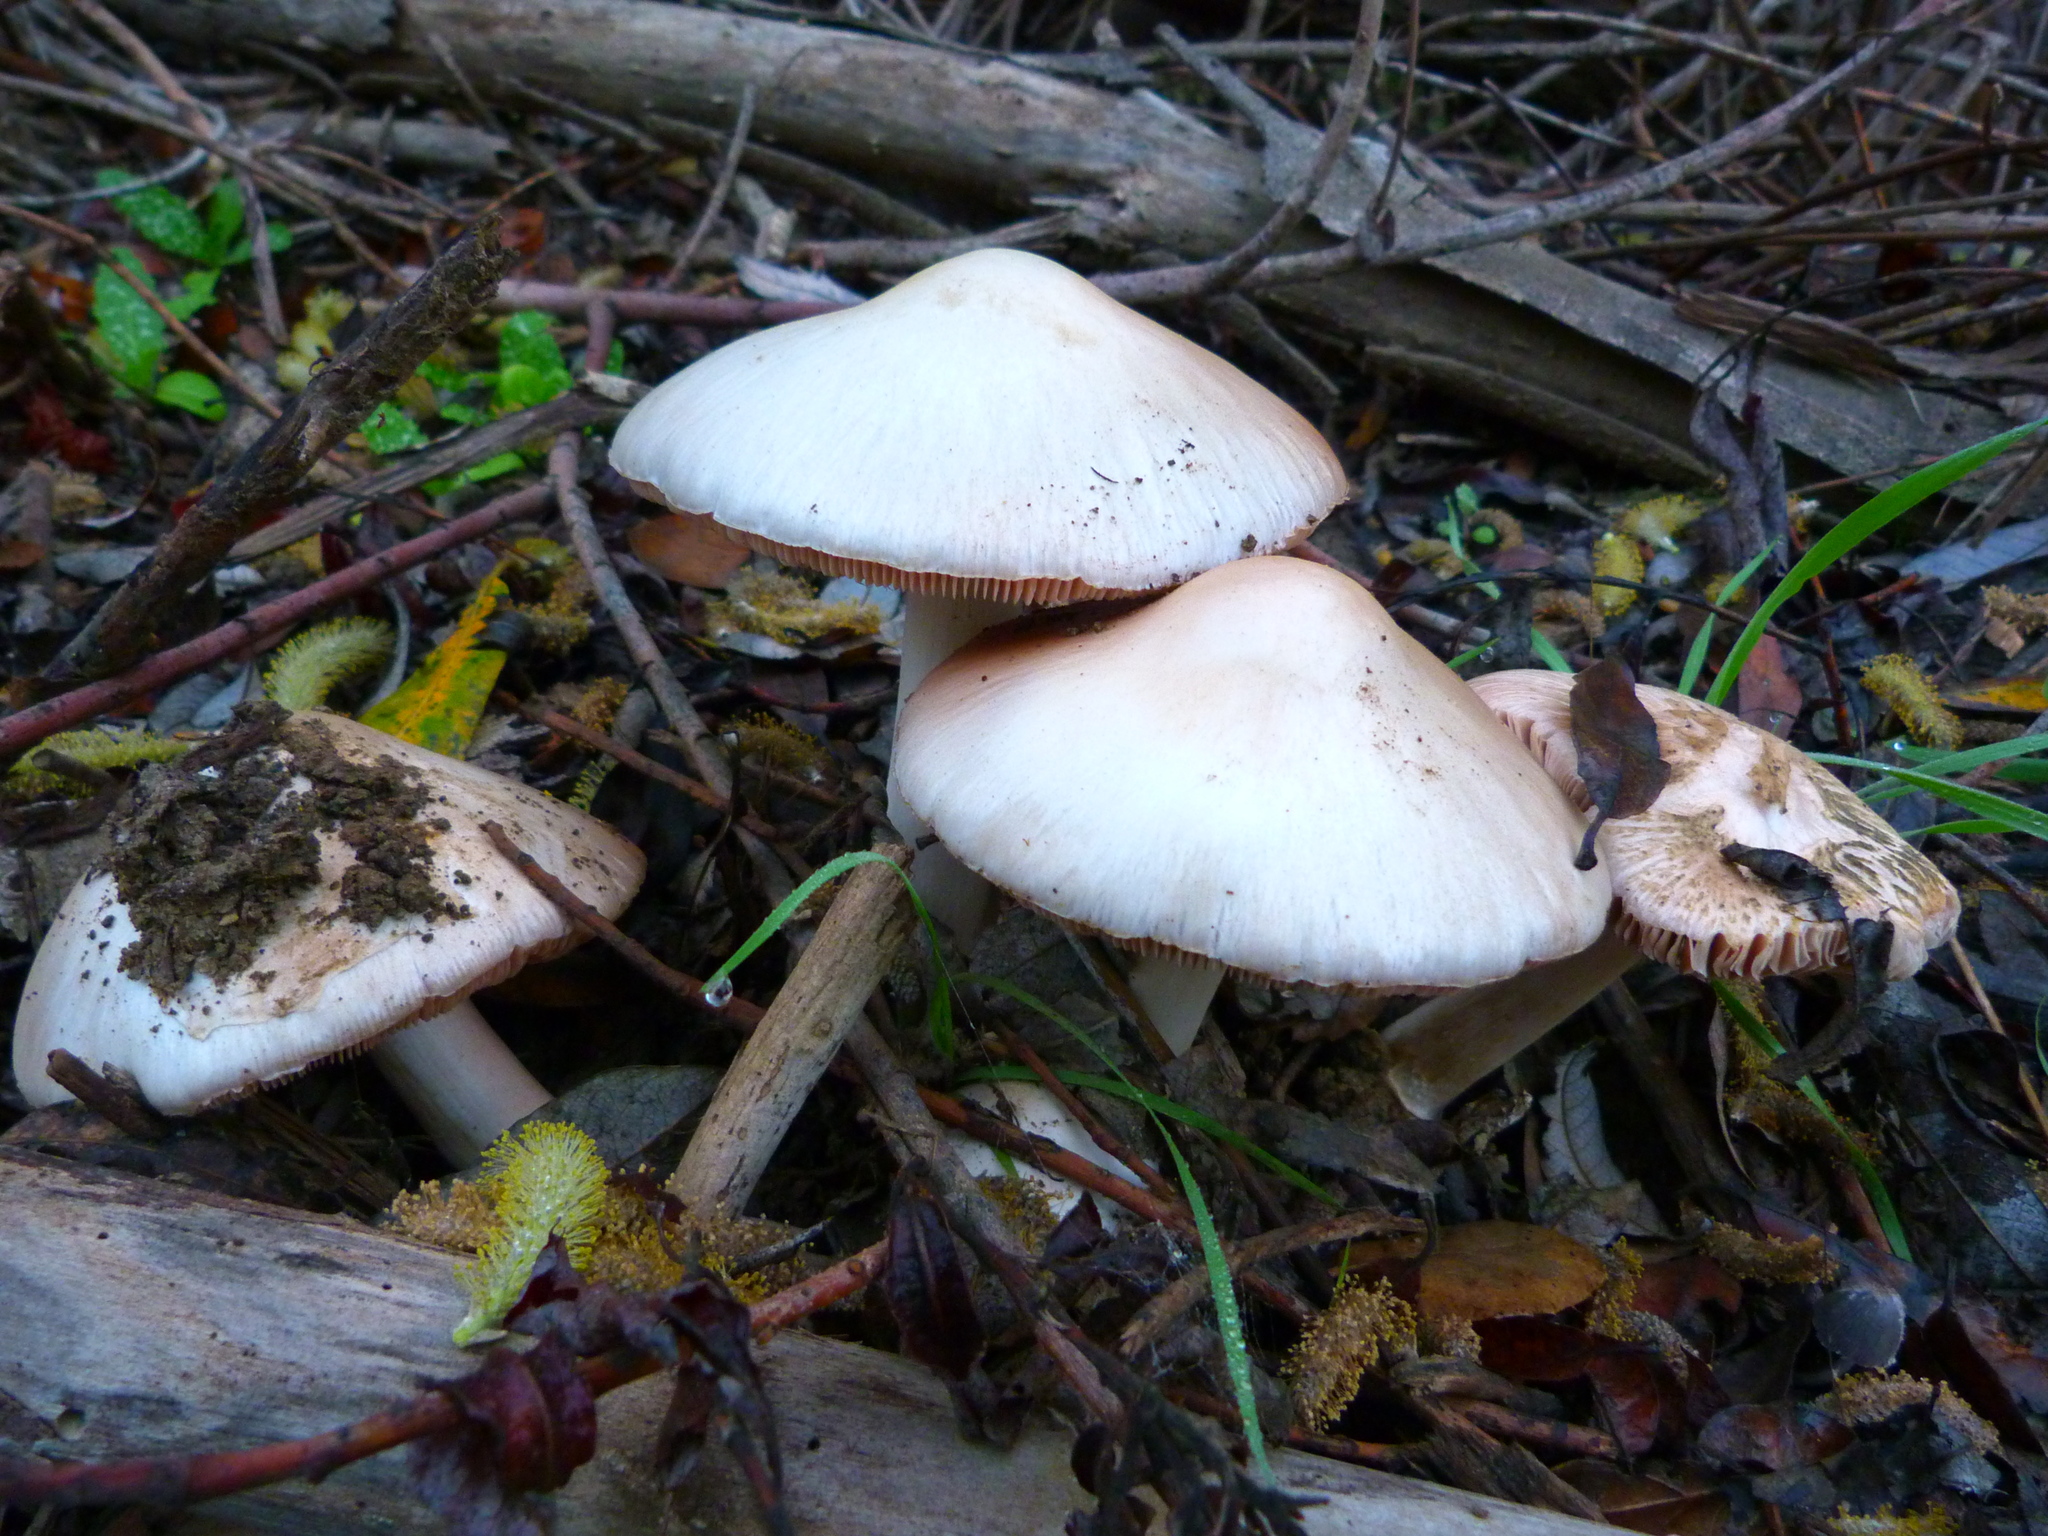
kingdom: Fungi
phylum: Basidiomycota
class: Agaricomycetes
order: Agaricales
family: Pluteaceae
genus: Volvopluteus
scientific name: Volvopluteus gloiocephalus
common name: Stubble rosegill
